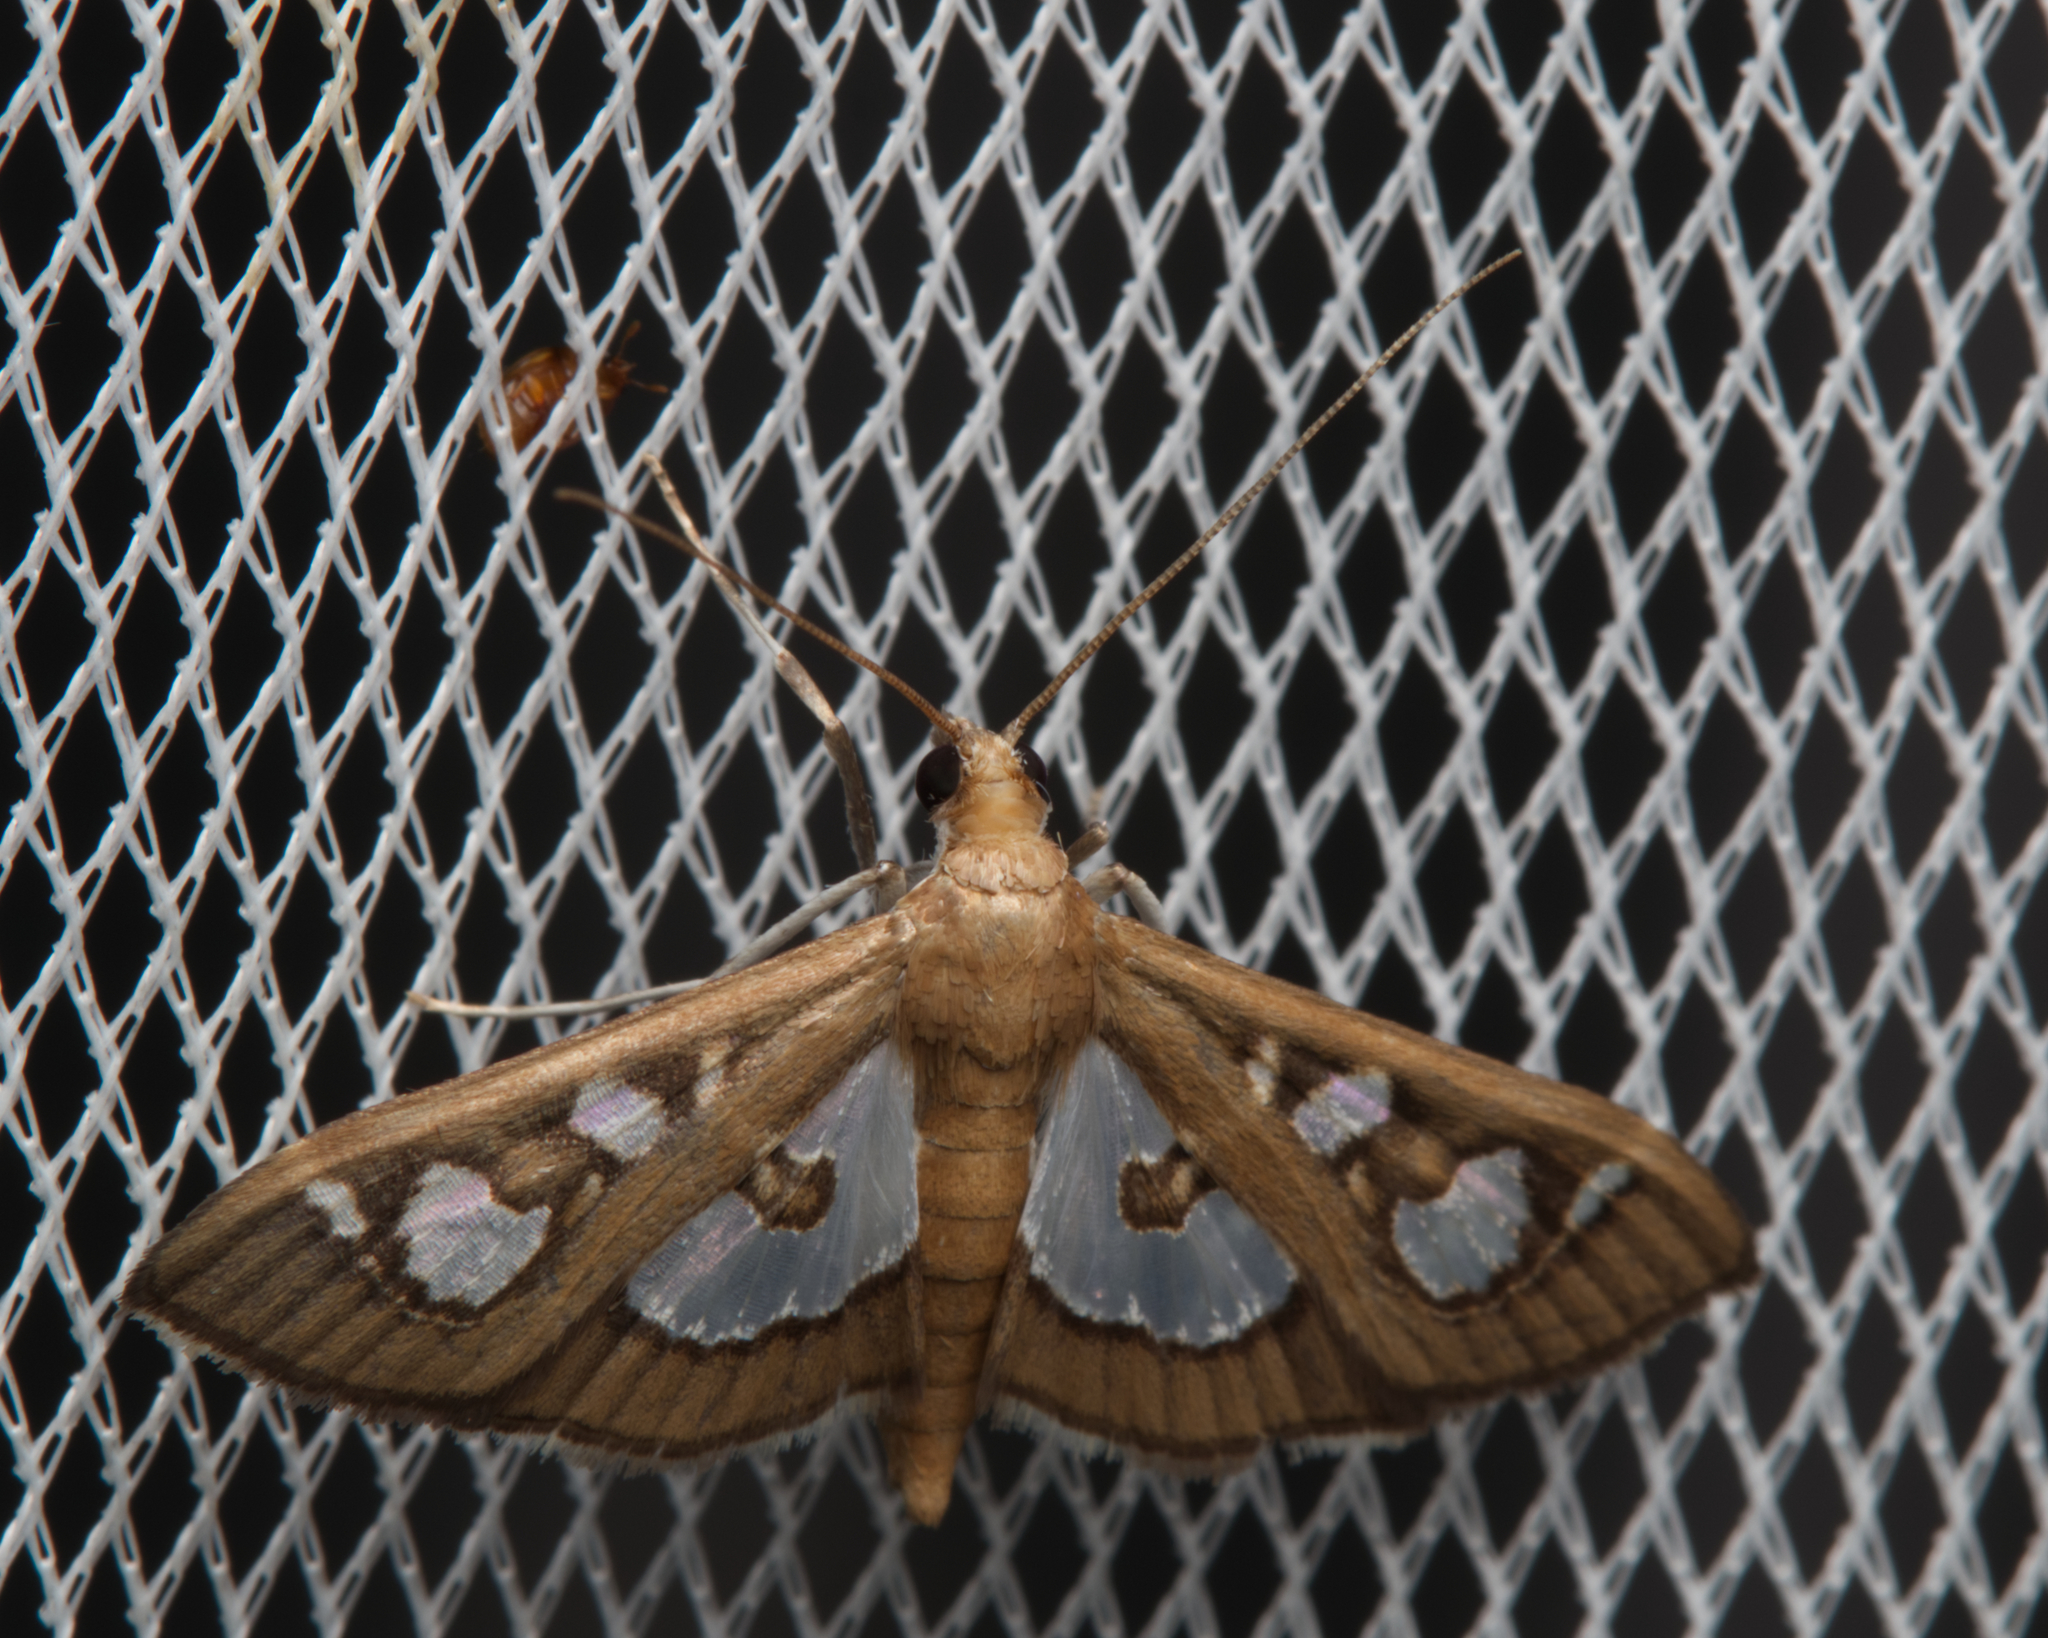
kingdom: Animalia
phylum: Arthropoda
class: Insecta
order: Lepidoptera
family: Crambidae
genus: Glyphodes
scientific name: Glyphodes microta
